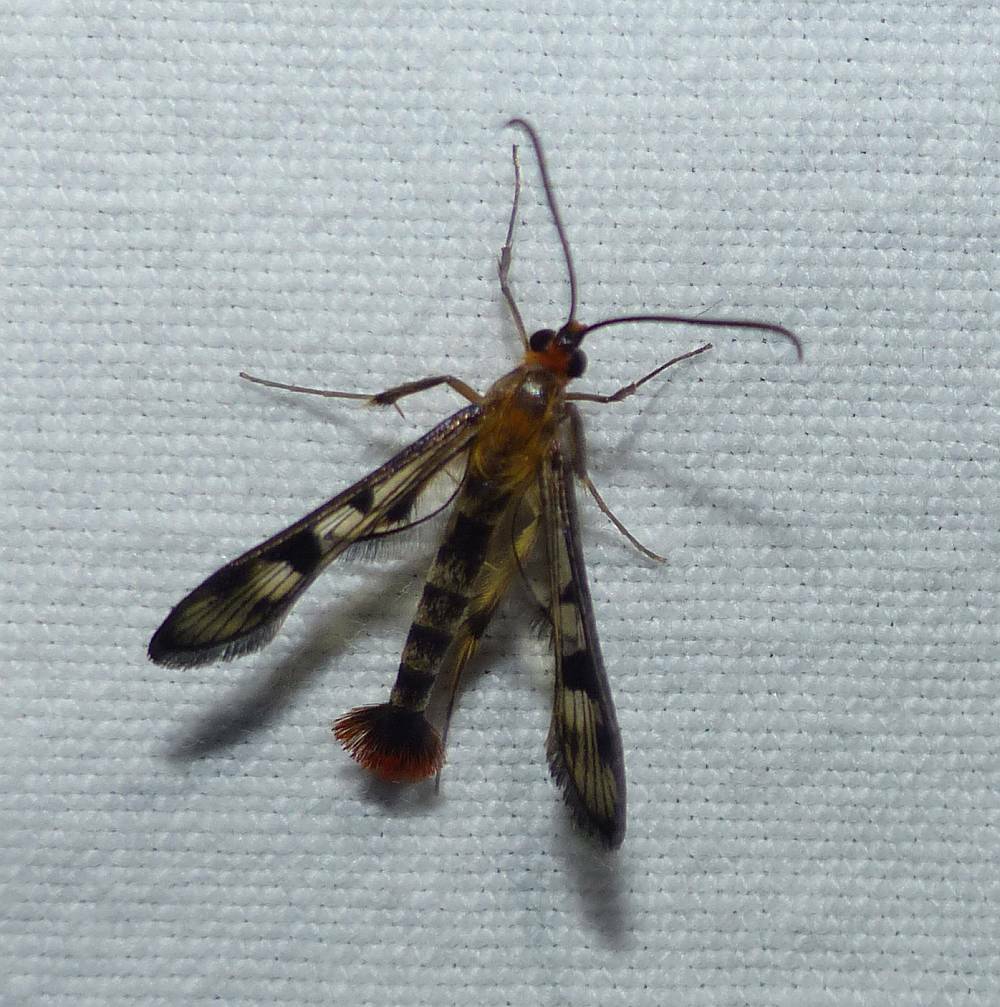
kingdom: Animalia
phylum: Arthropoda
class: Insecta
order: Lepidoptera
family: Sesiidae
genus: Synanthedon
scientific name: Synanthedon acerni
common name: Maple callus borer moth
